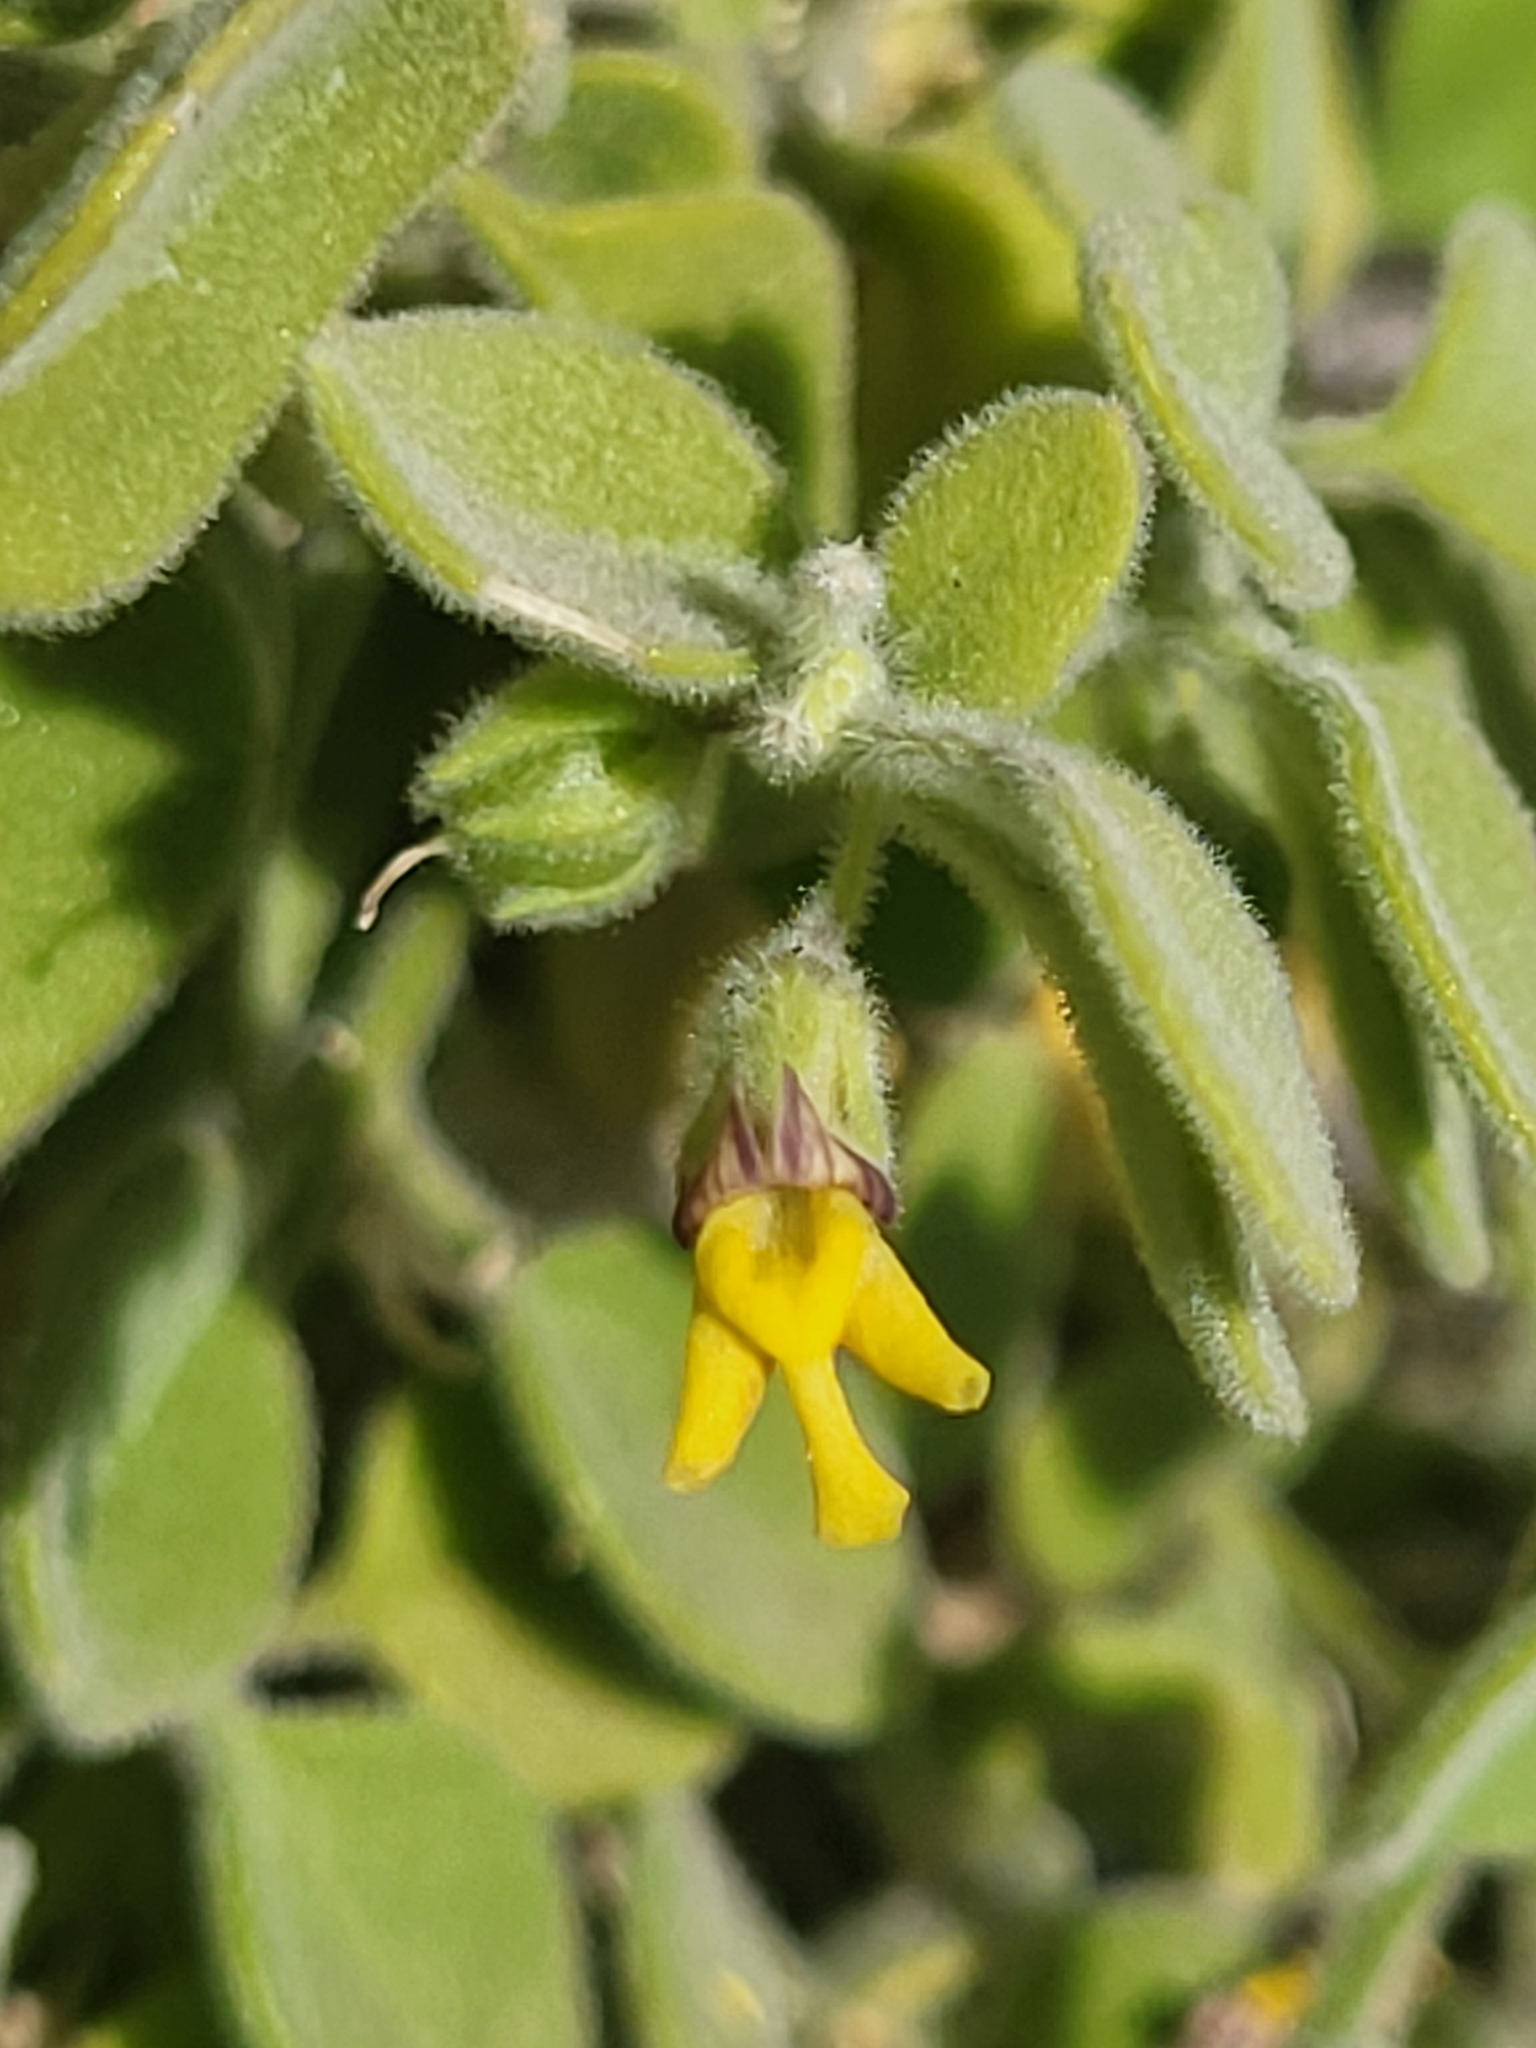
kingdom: Plantae
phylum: Tracheophyta
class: Magnoliopsida
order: Lamiales
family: Plantaginaceae
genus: Nanorrhinum
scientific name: Nanorrhinum dichondrifolium
